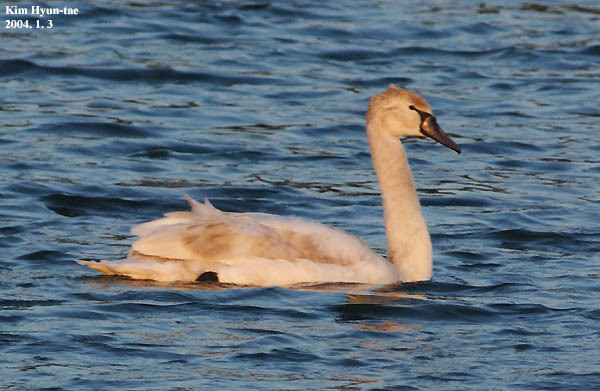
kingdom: Animalia
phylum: Chordata
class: Aves
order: Anseriformes
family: Anatidae
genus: Cygnus
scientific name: Cygnus olor
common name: Mute swan
